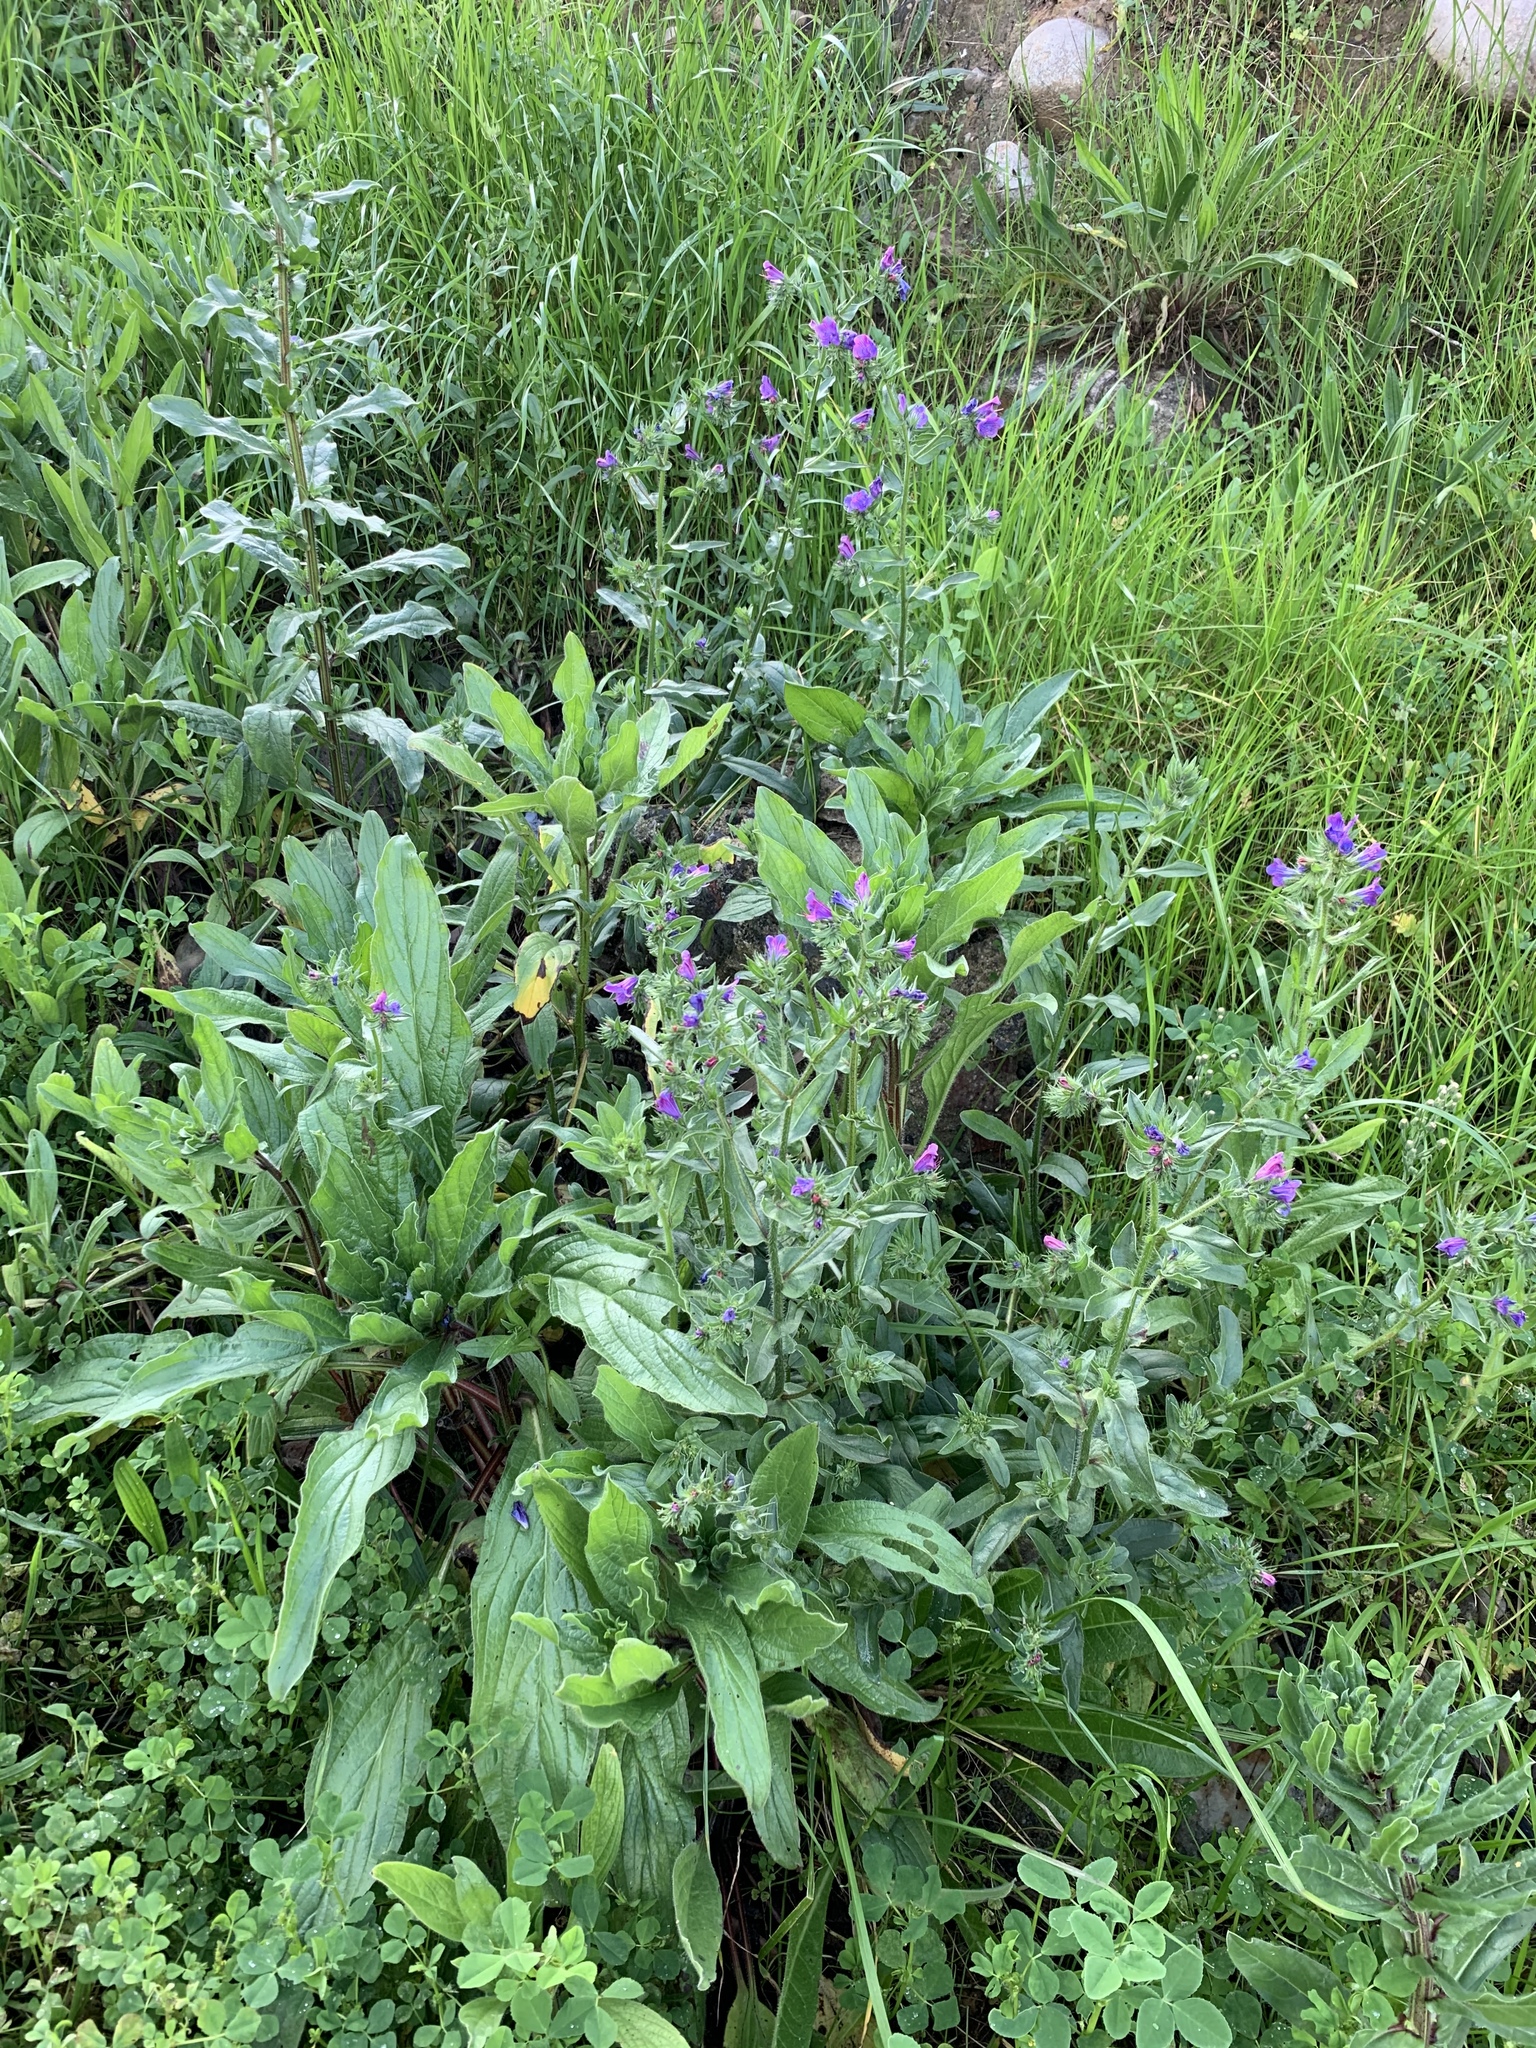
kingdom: Plantae
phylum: Tracheophyta
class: Magnoliopsida
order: Boraginales
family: Boraginaceae
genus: Echium
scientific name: Echium plantagineum
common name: Purple viper's-bugloss
